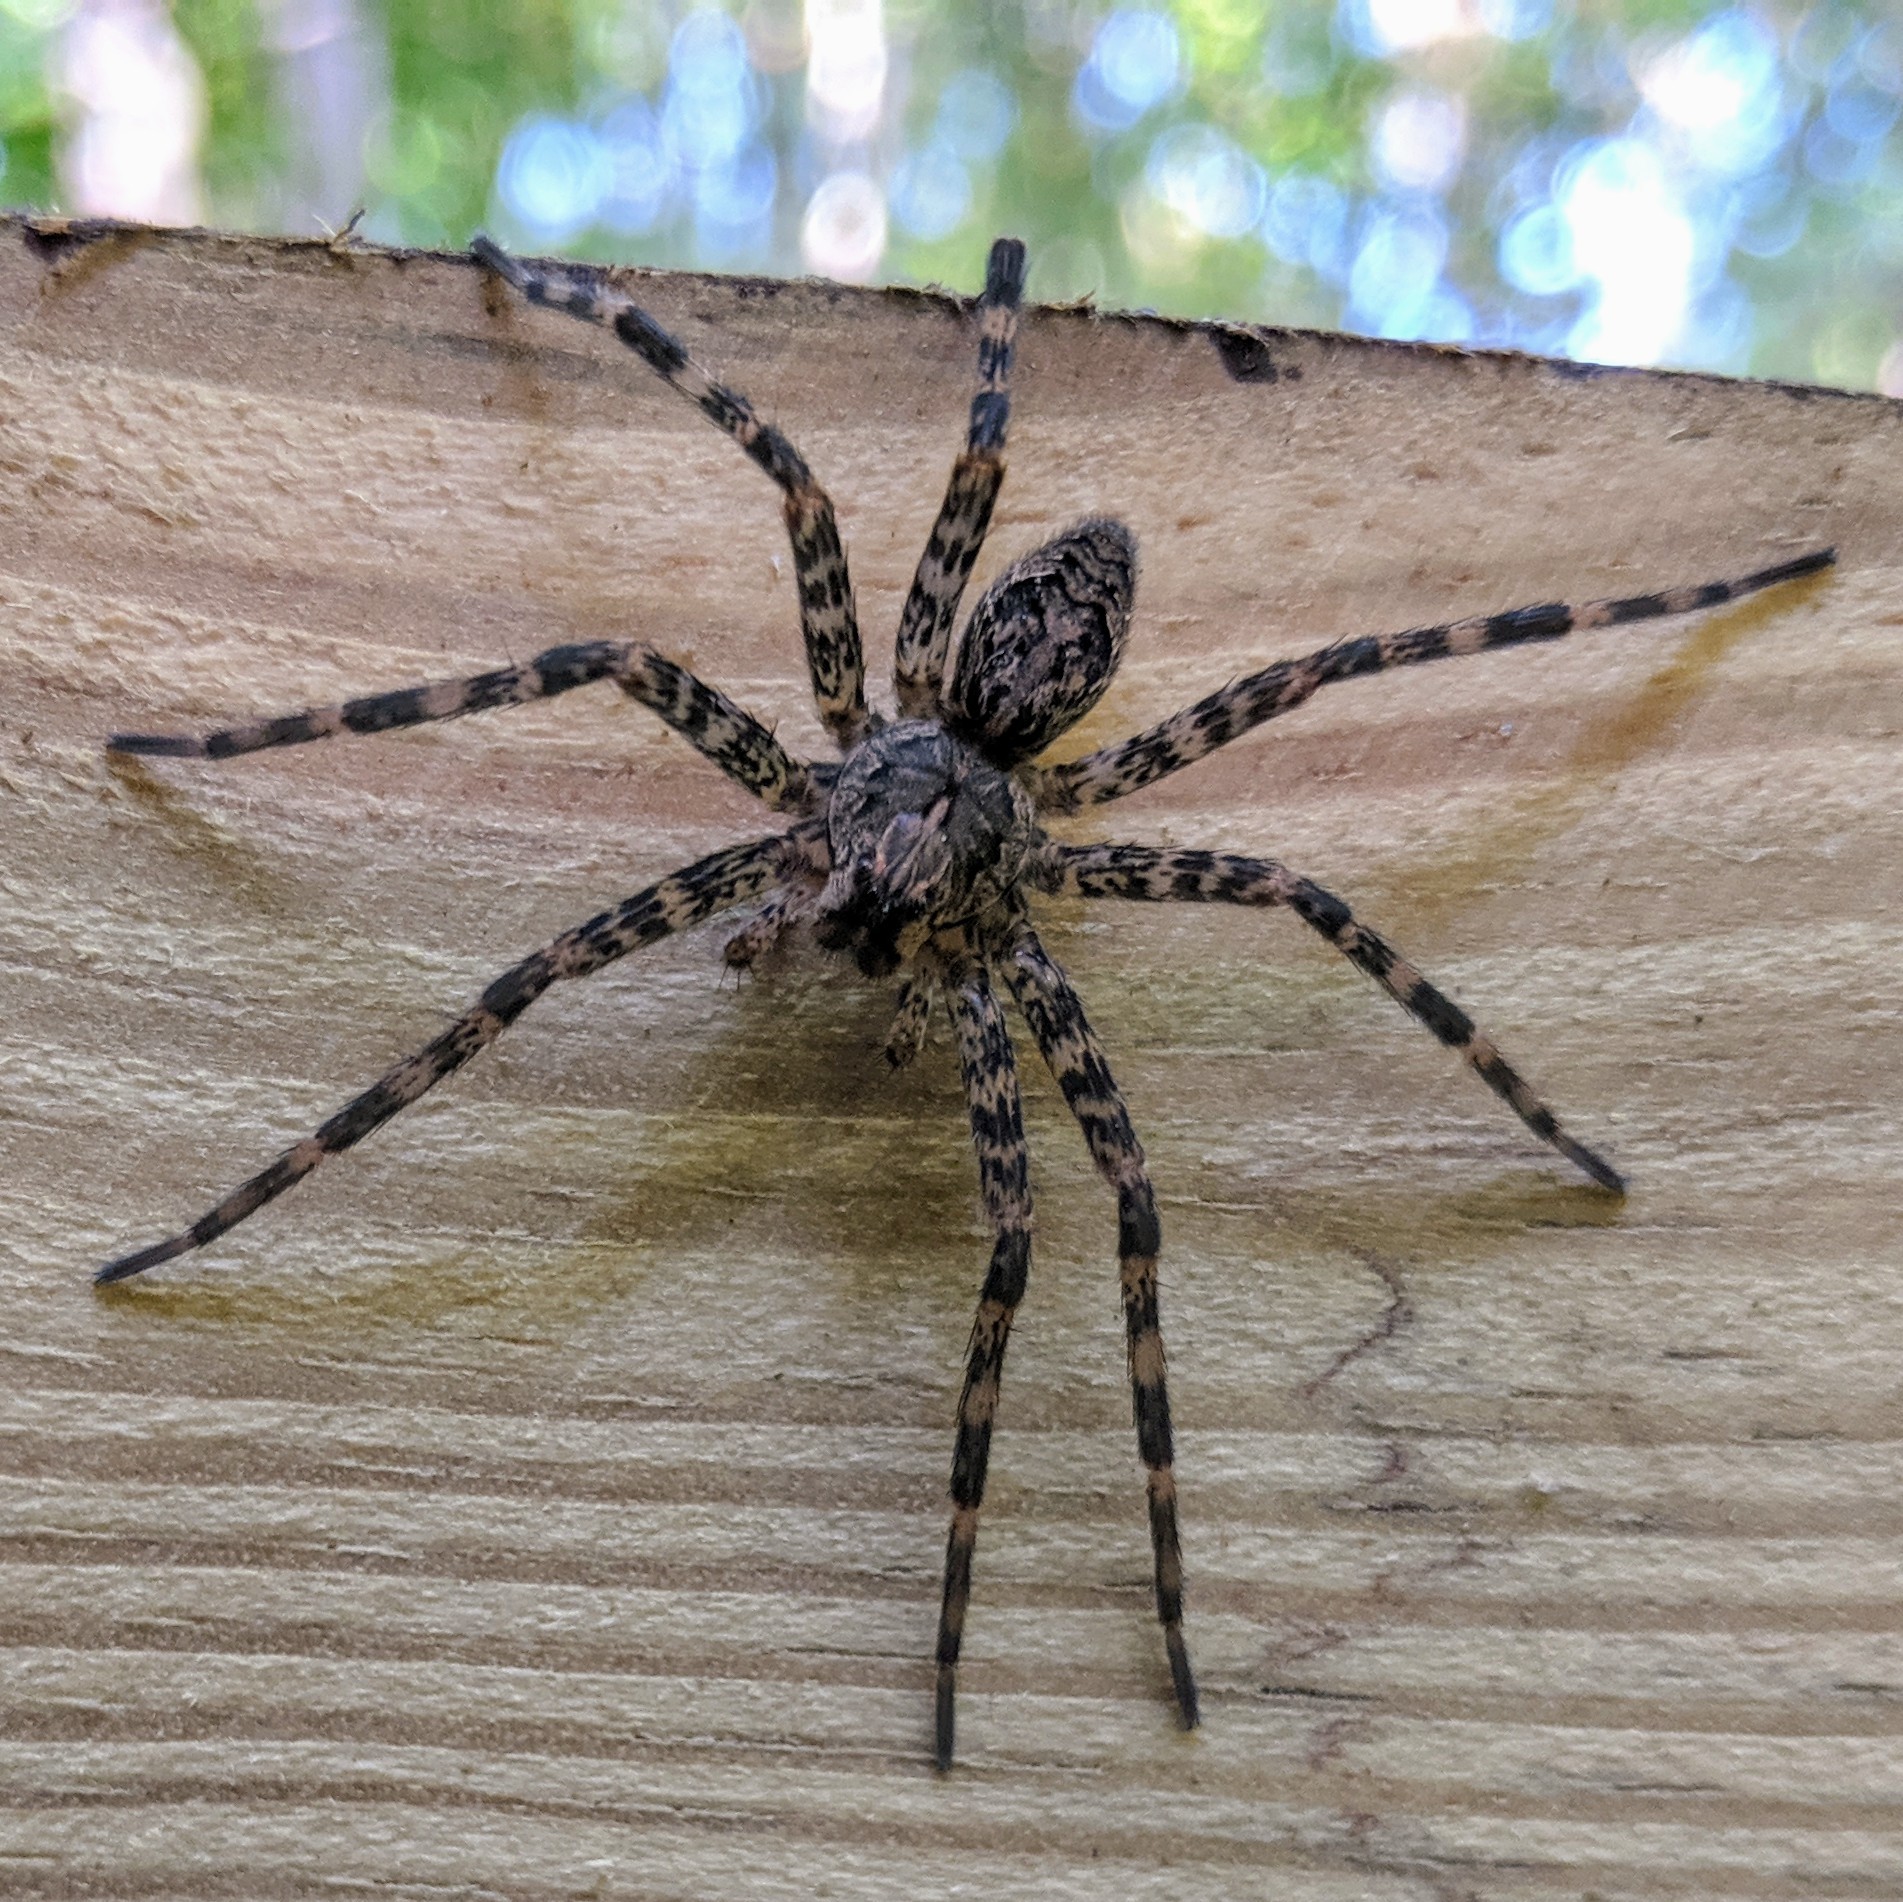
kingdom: Animalia
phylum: Arthropoda
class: Arachnida
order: Araneae
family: Pisauridae
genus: Dolomedes
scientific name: Dolomedes tenebrosus
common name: Dark fishing spider
